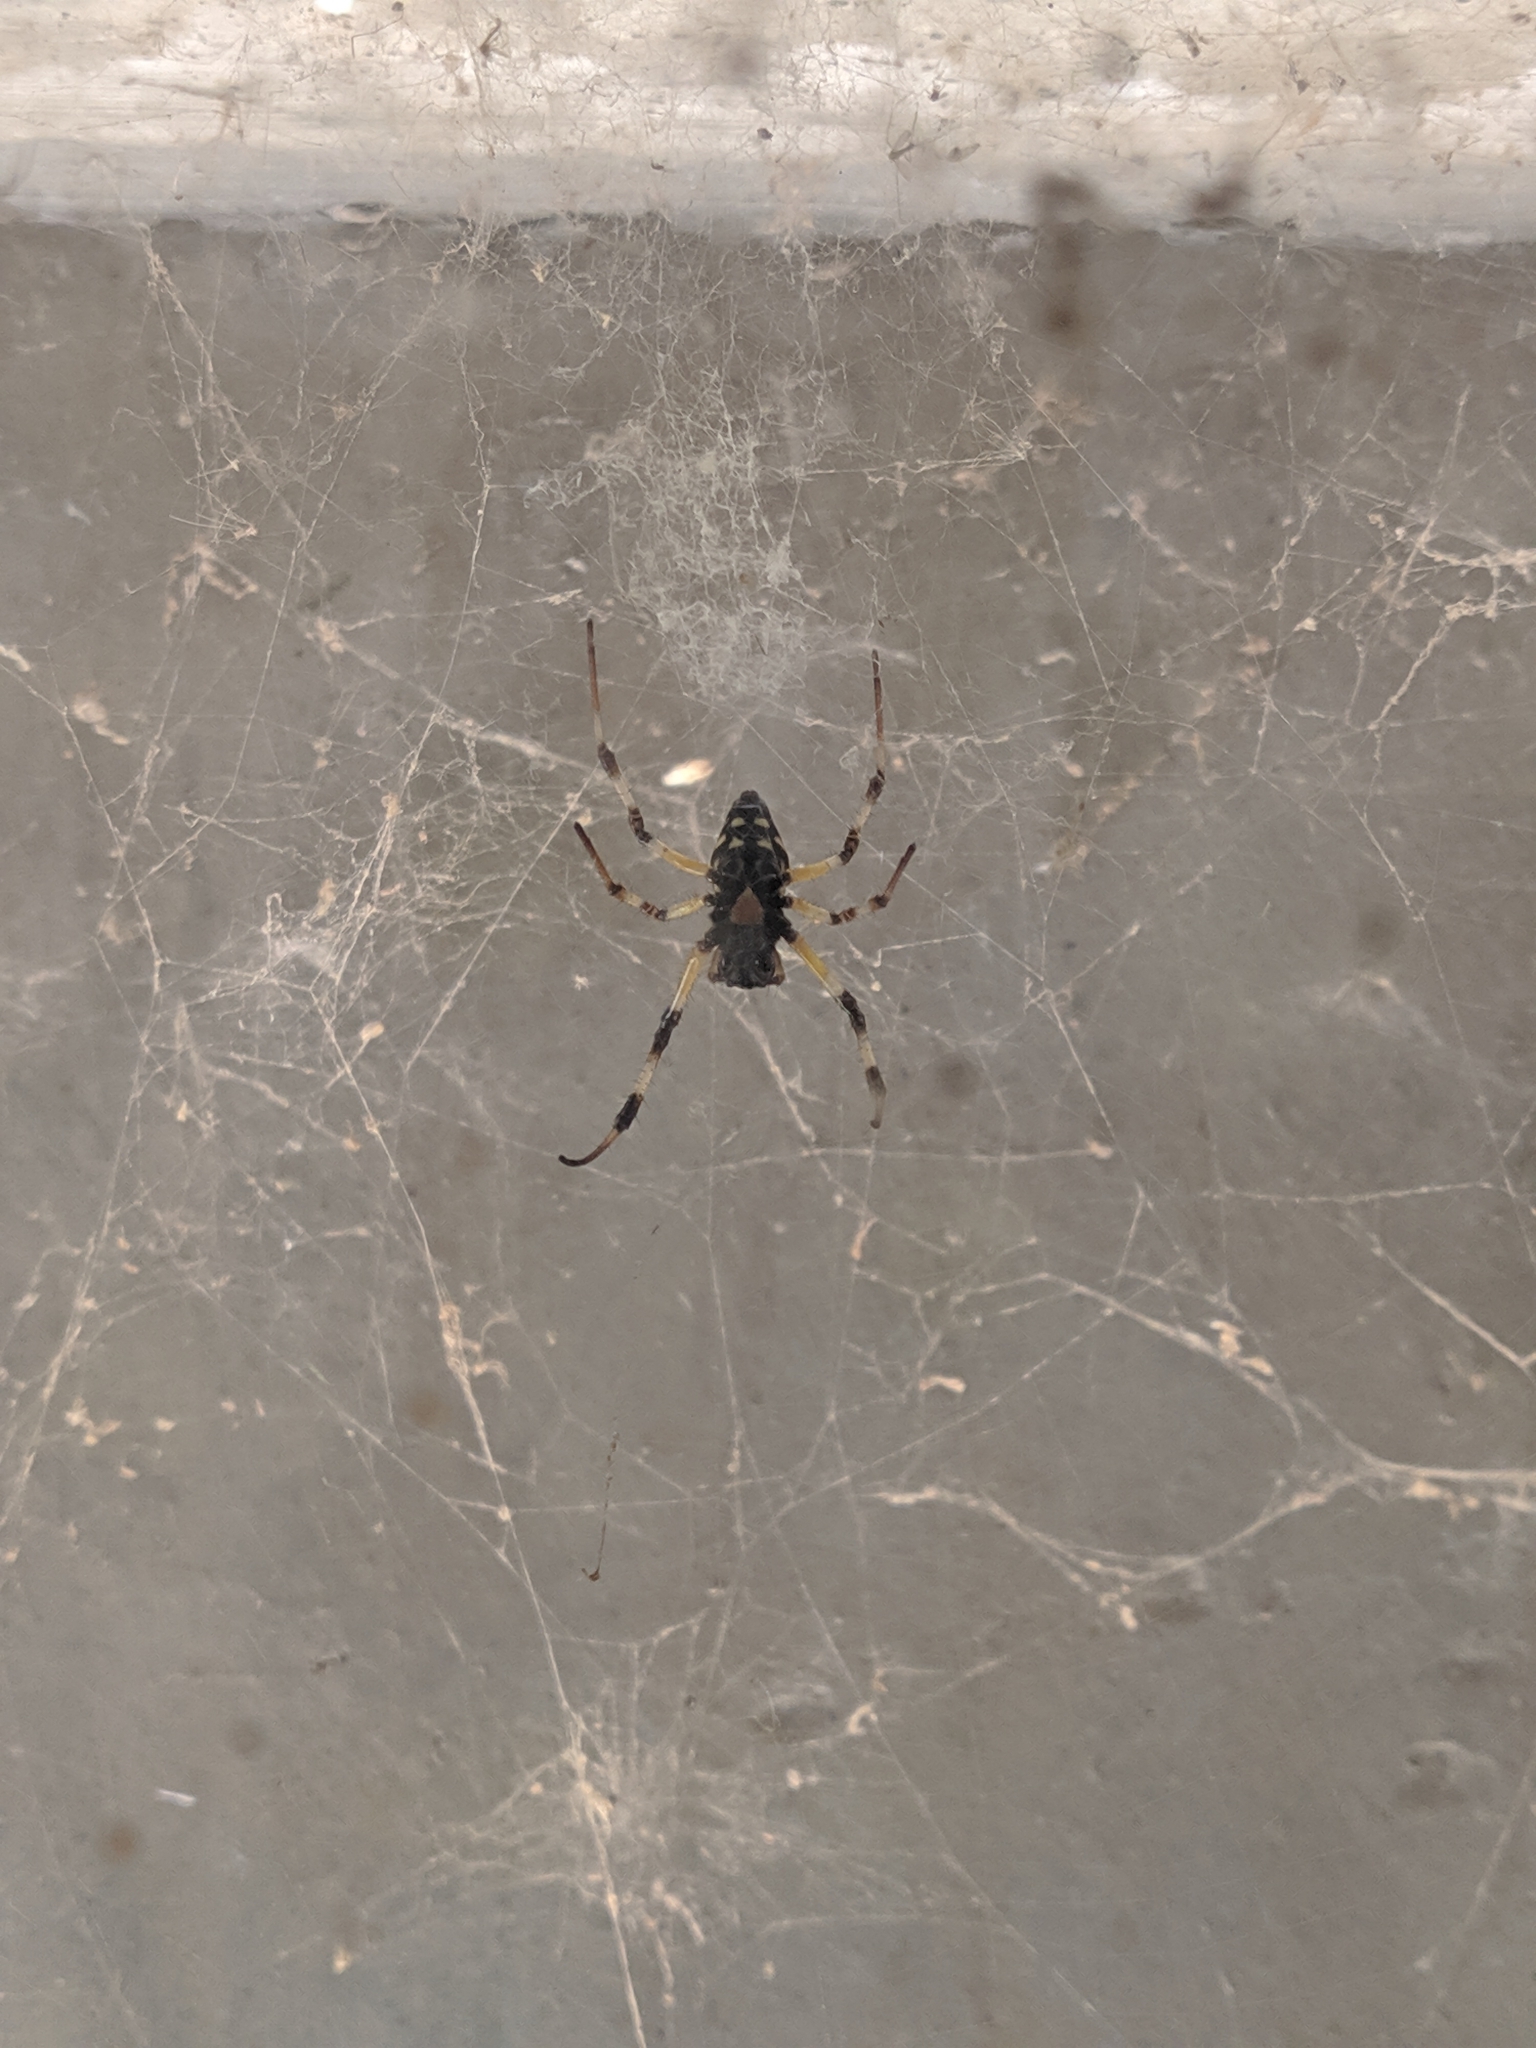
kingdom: Animalia
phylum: Arthropoda
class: Arachnida
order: Araneae
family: Araneidae
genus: Nephilingis
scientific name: Nephilingis cruentata
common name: African hermit spider
